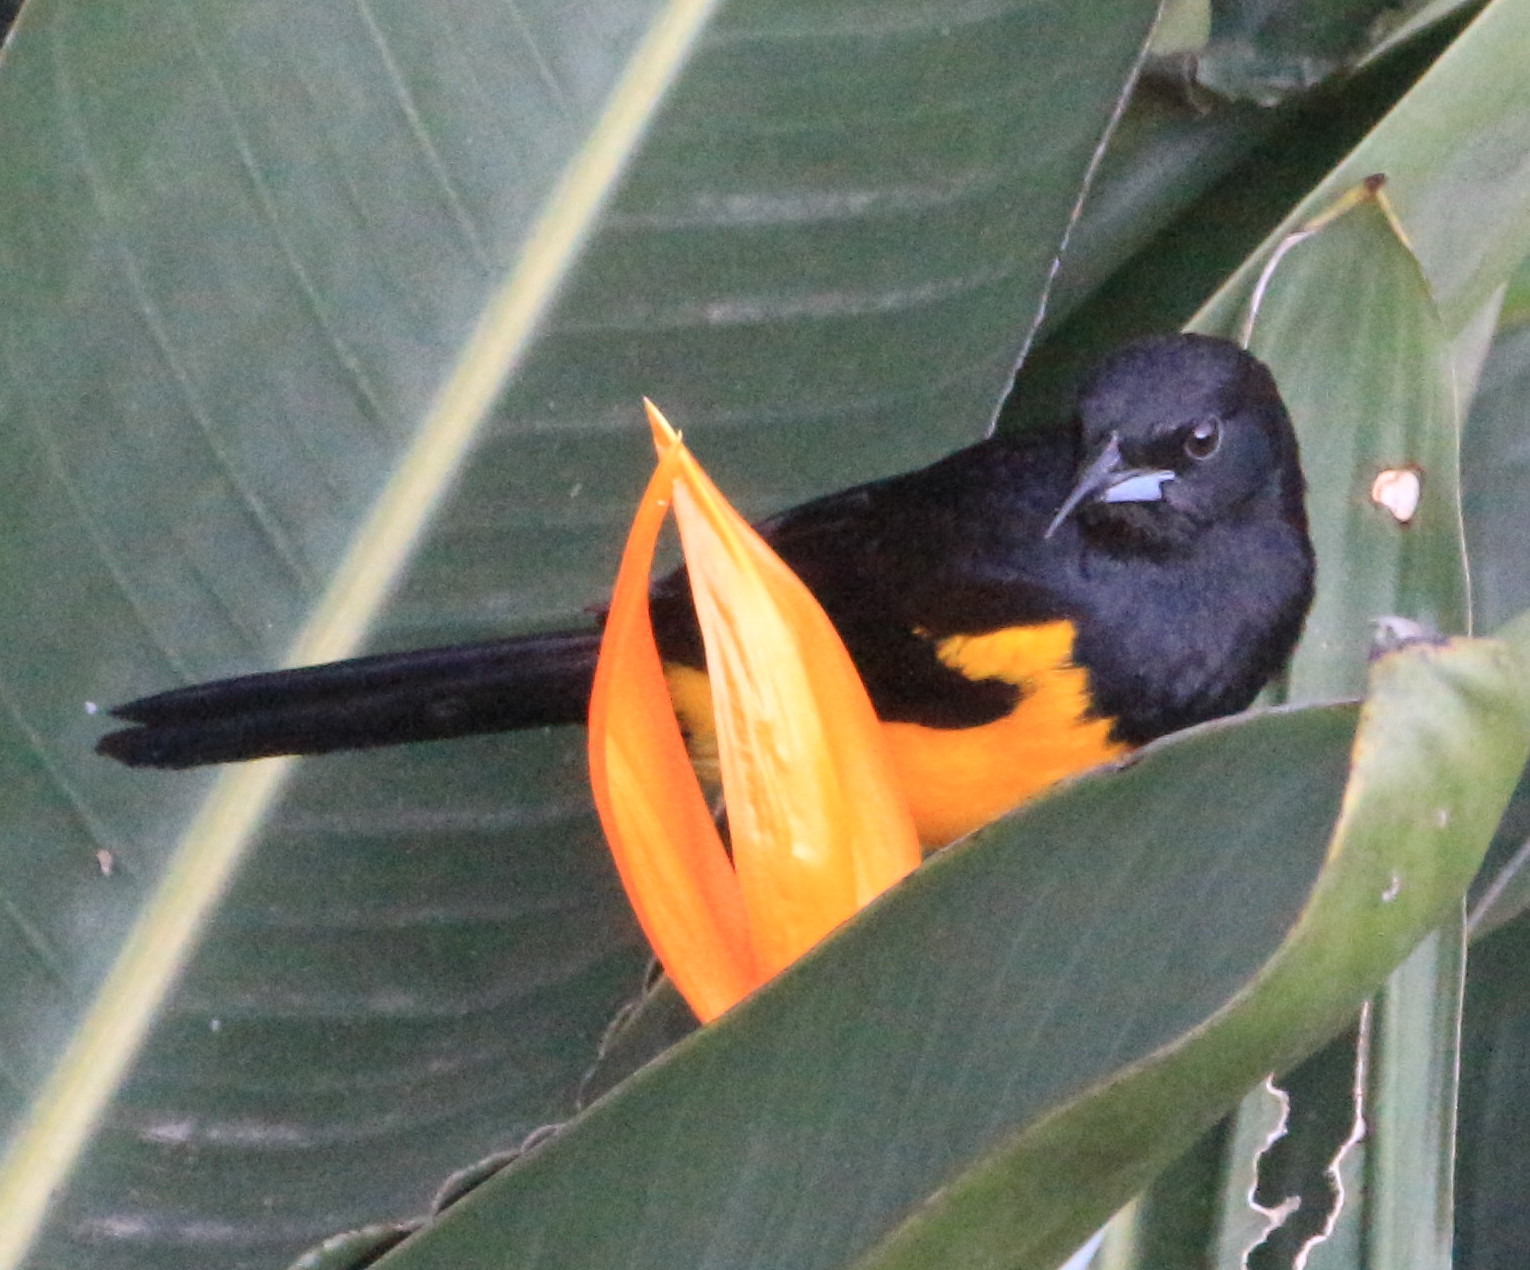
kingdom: Animalia
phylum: Chordata
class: Aves
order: Passeriformes
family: Icteridae
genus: Icterus
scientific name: Icterus wagleri
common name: Black-vented oriole
